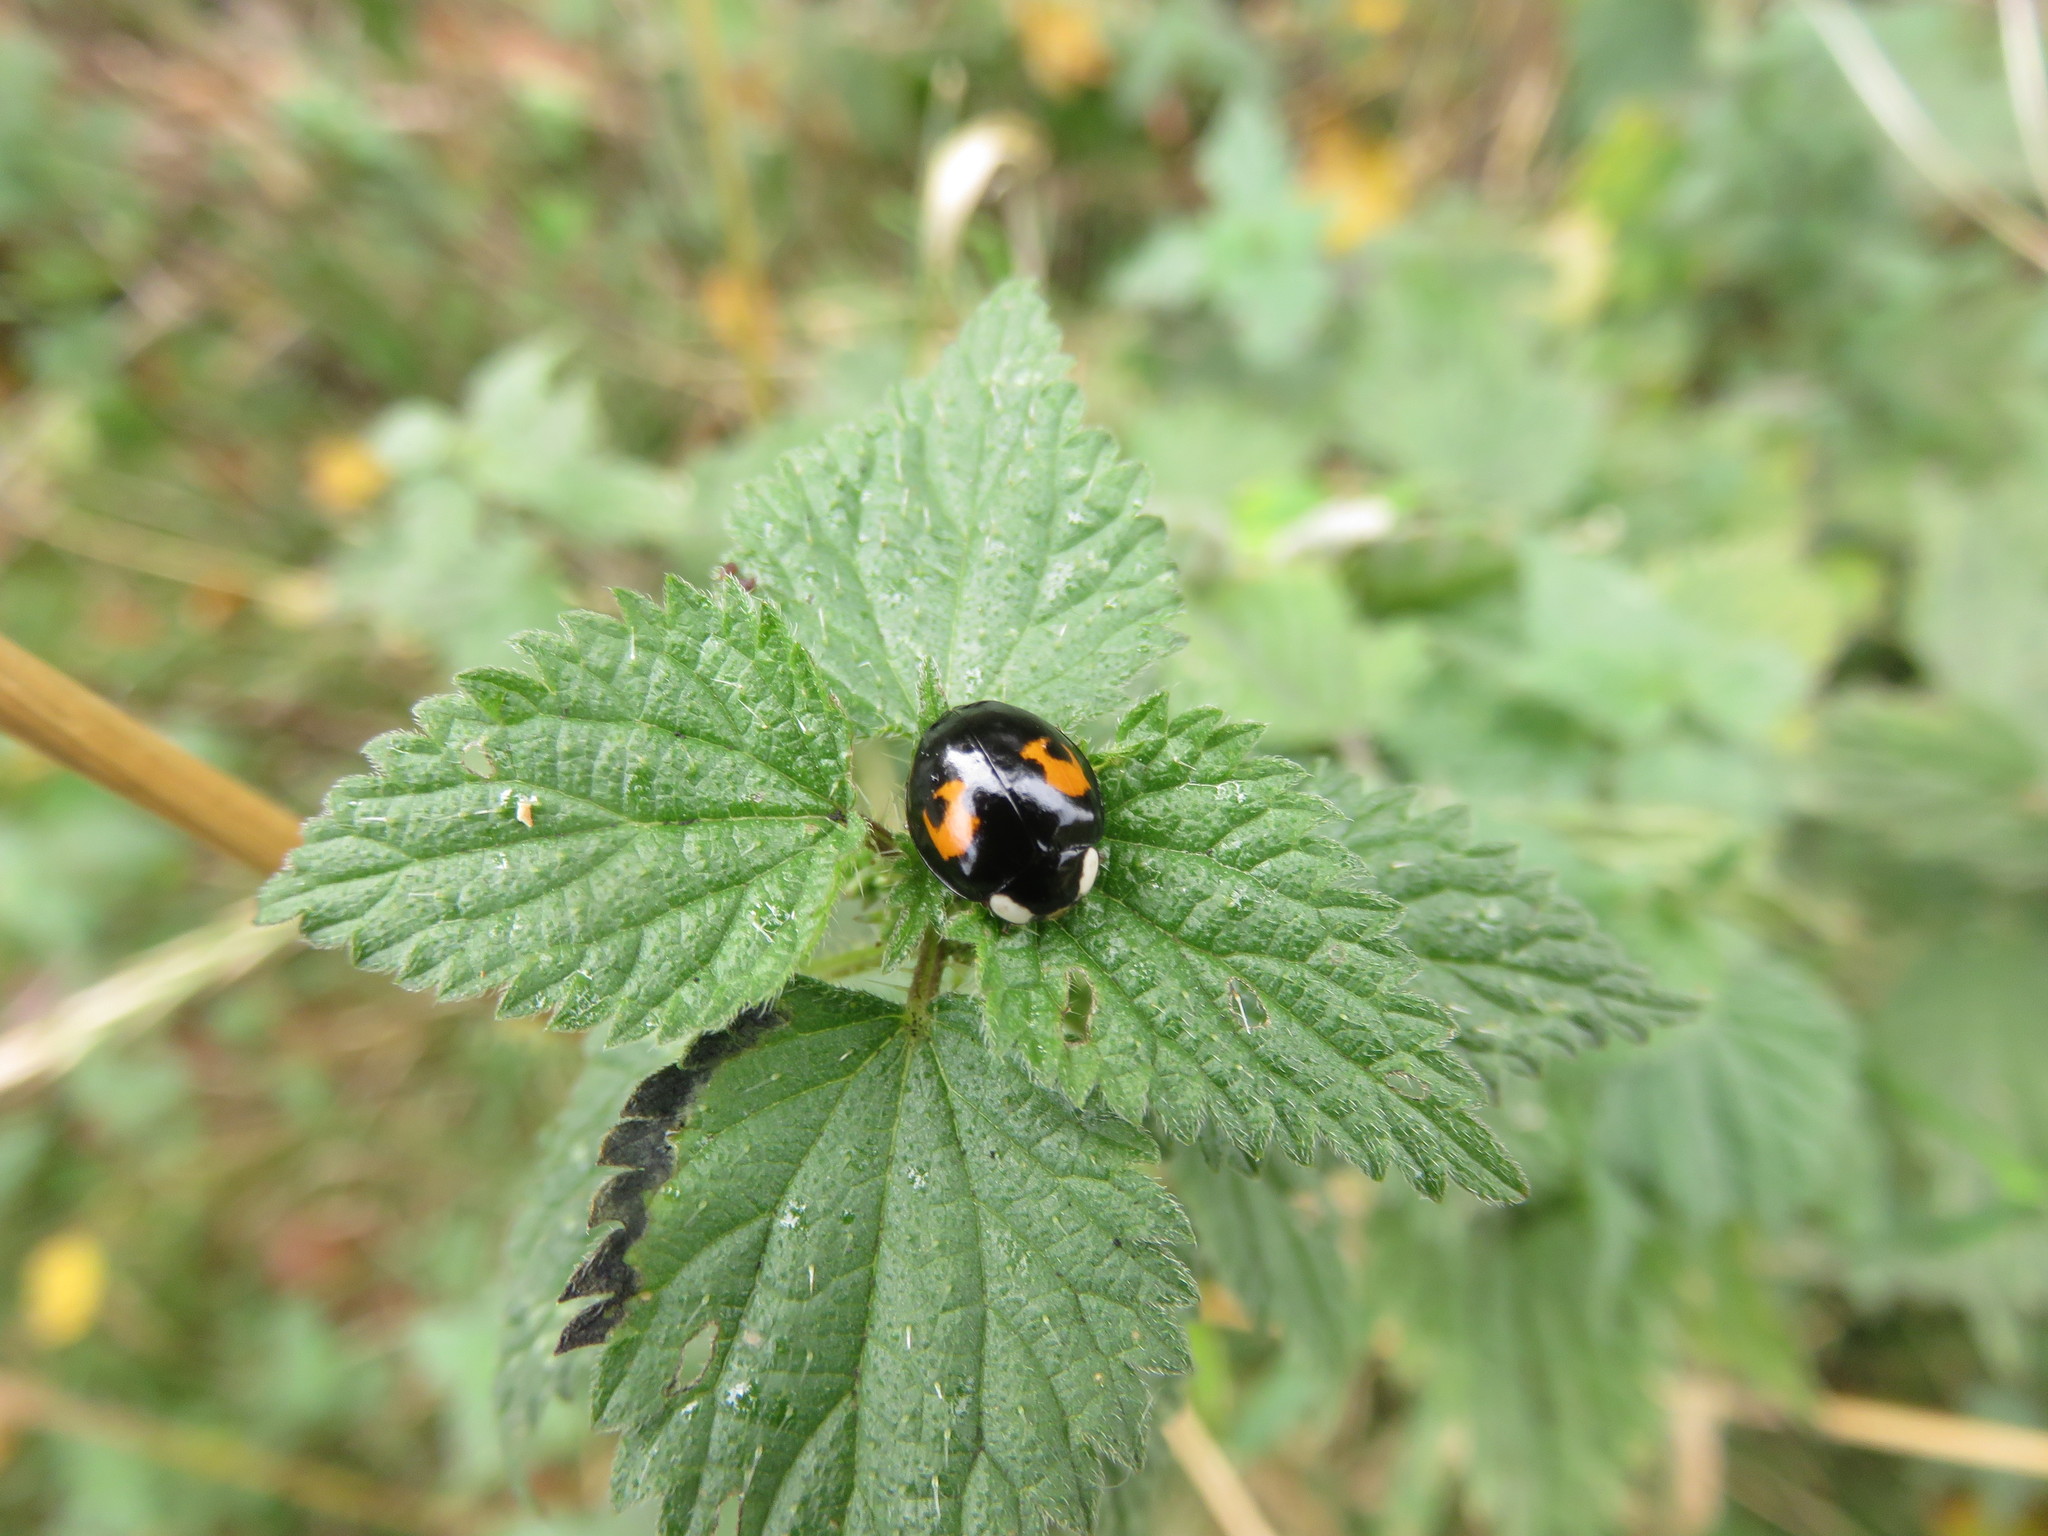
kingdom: Animalia
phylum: Arthropoda
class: Insecta
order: Coleoptera
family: Coccinellidae
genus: Harmonia
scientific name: Harmonia axyridis
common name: Harlequin ladybird
